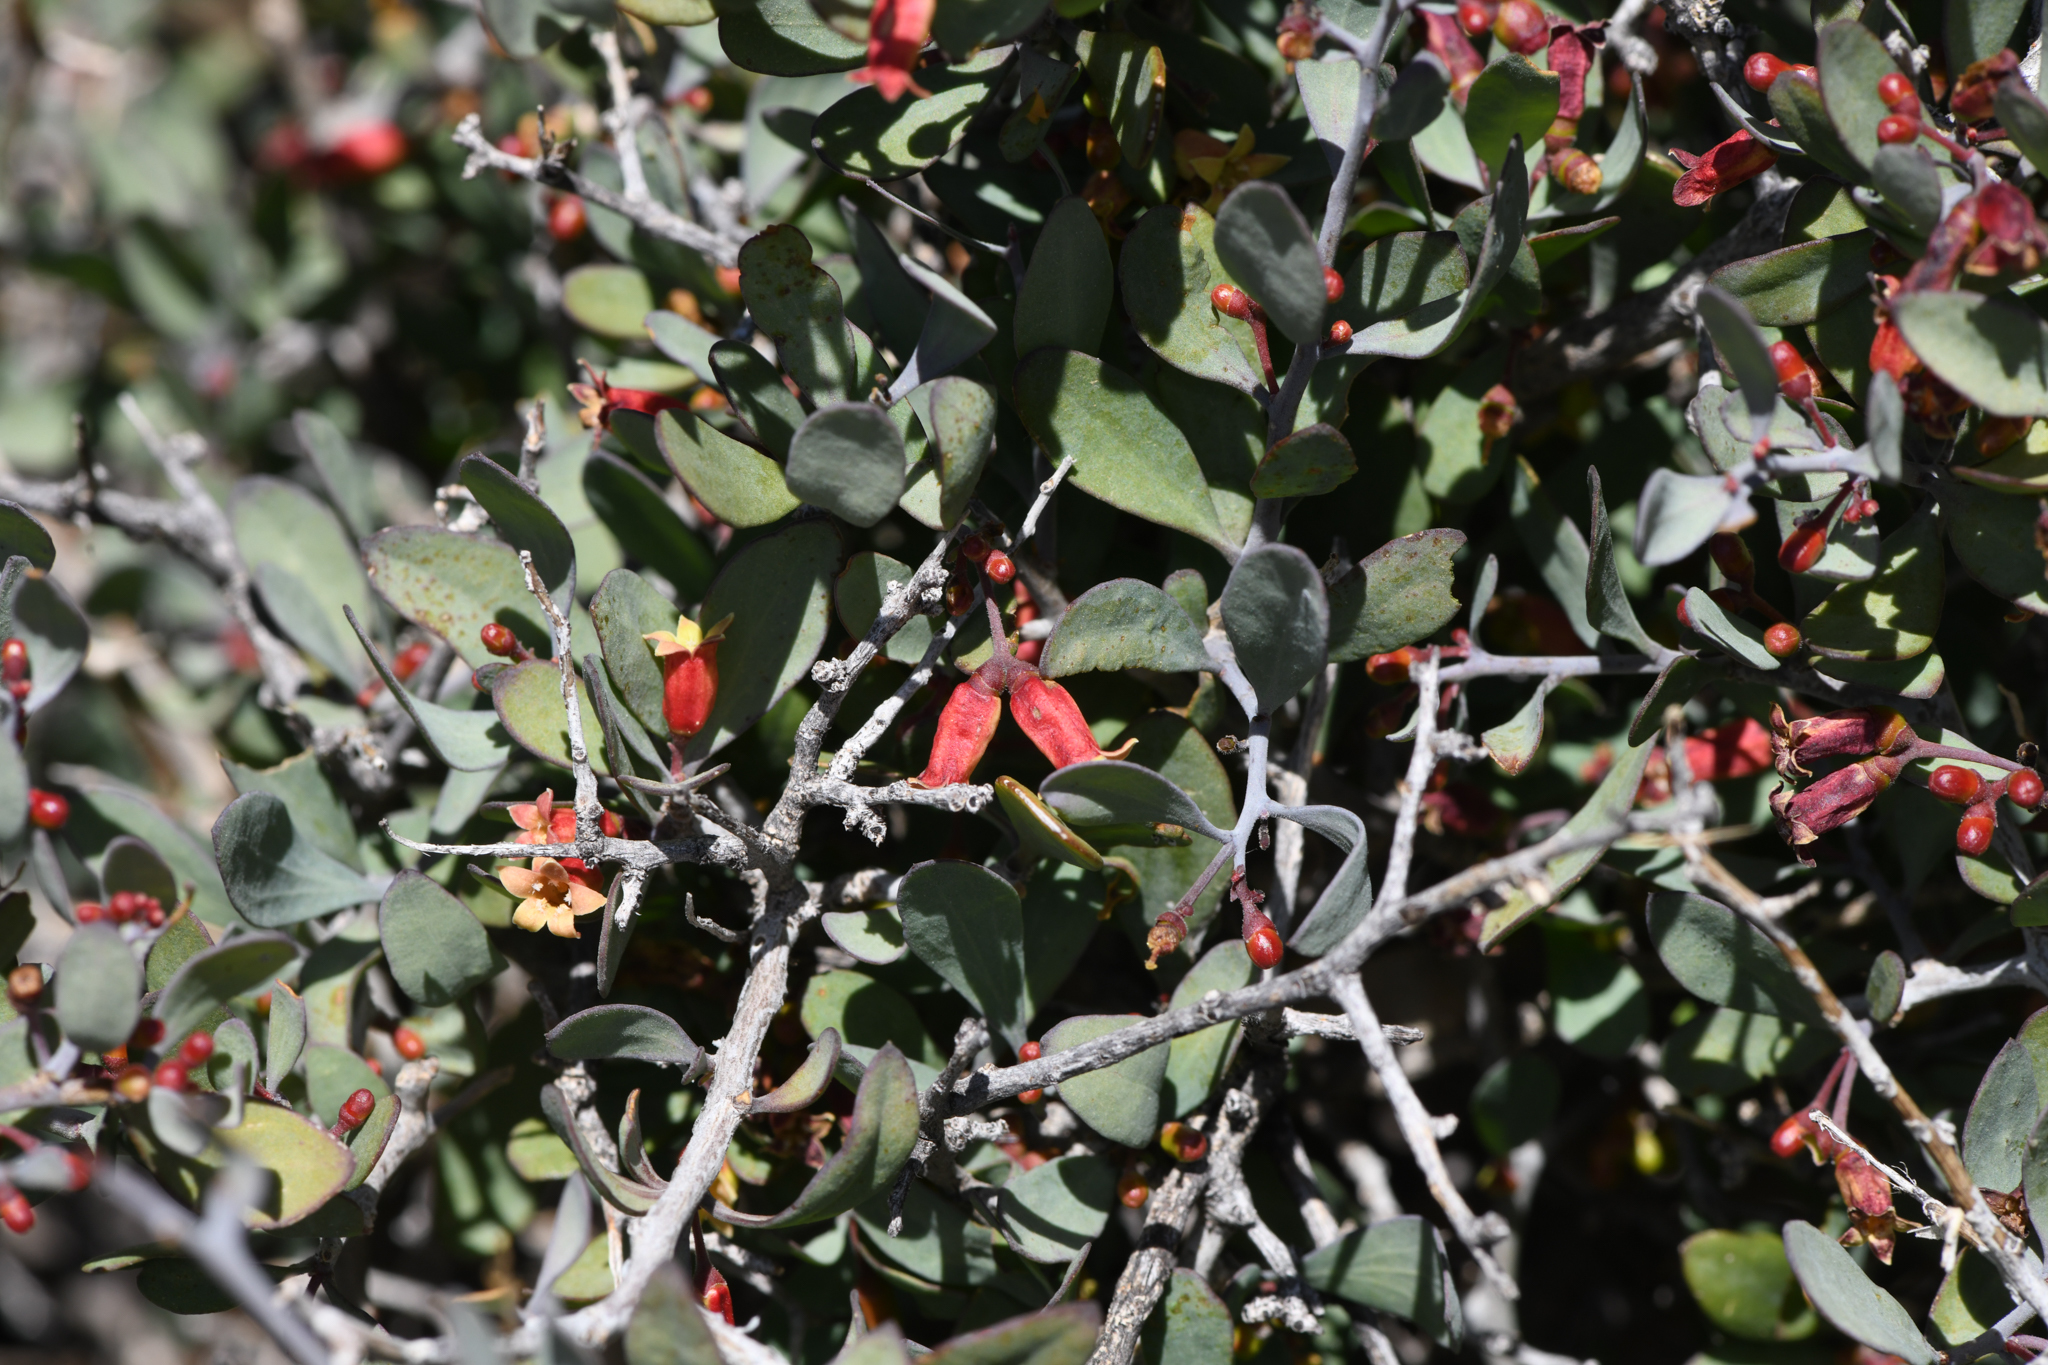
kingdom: Plantae
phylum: Tracheophyta
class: Magnoliopsida
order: Santalales
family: Schoepfiaceae
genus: Schoepfia
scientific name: Schoepfia californica
